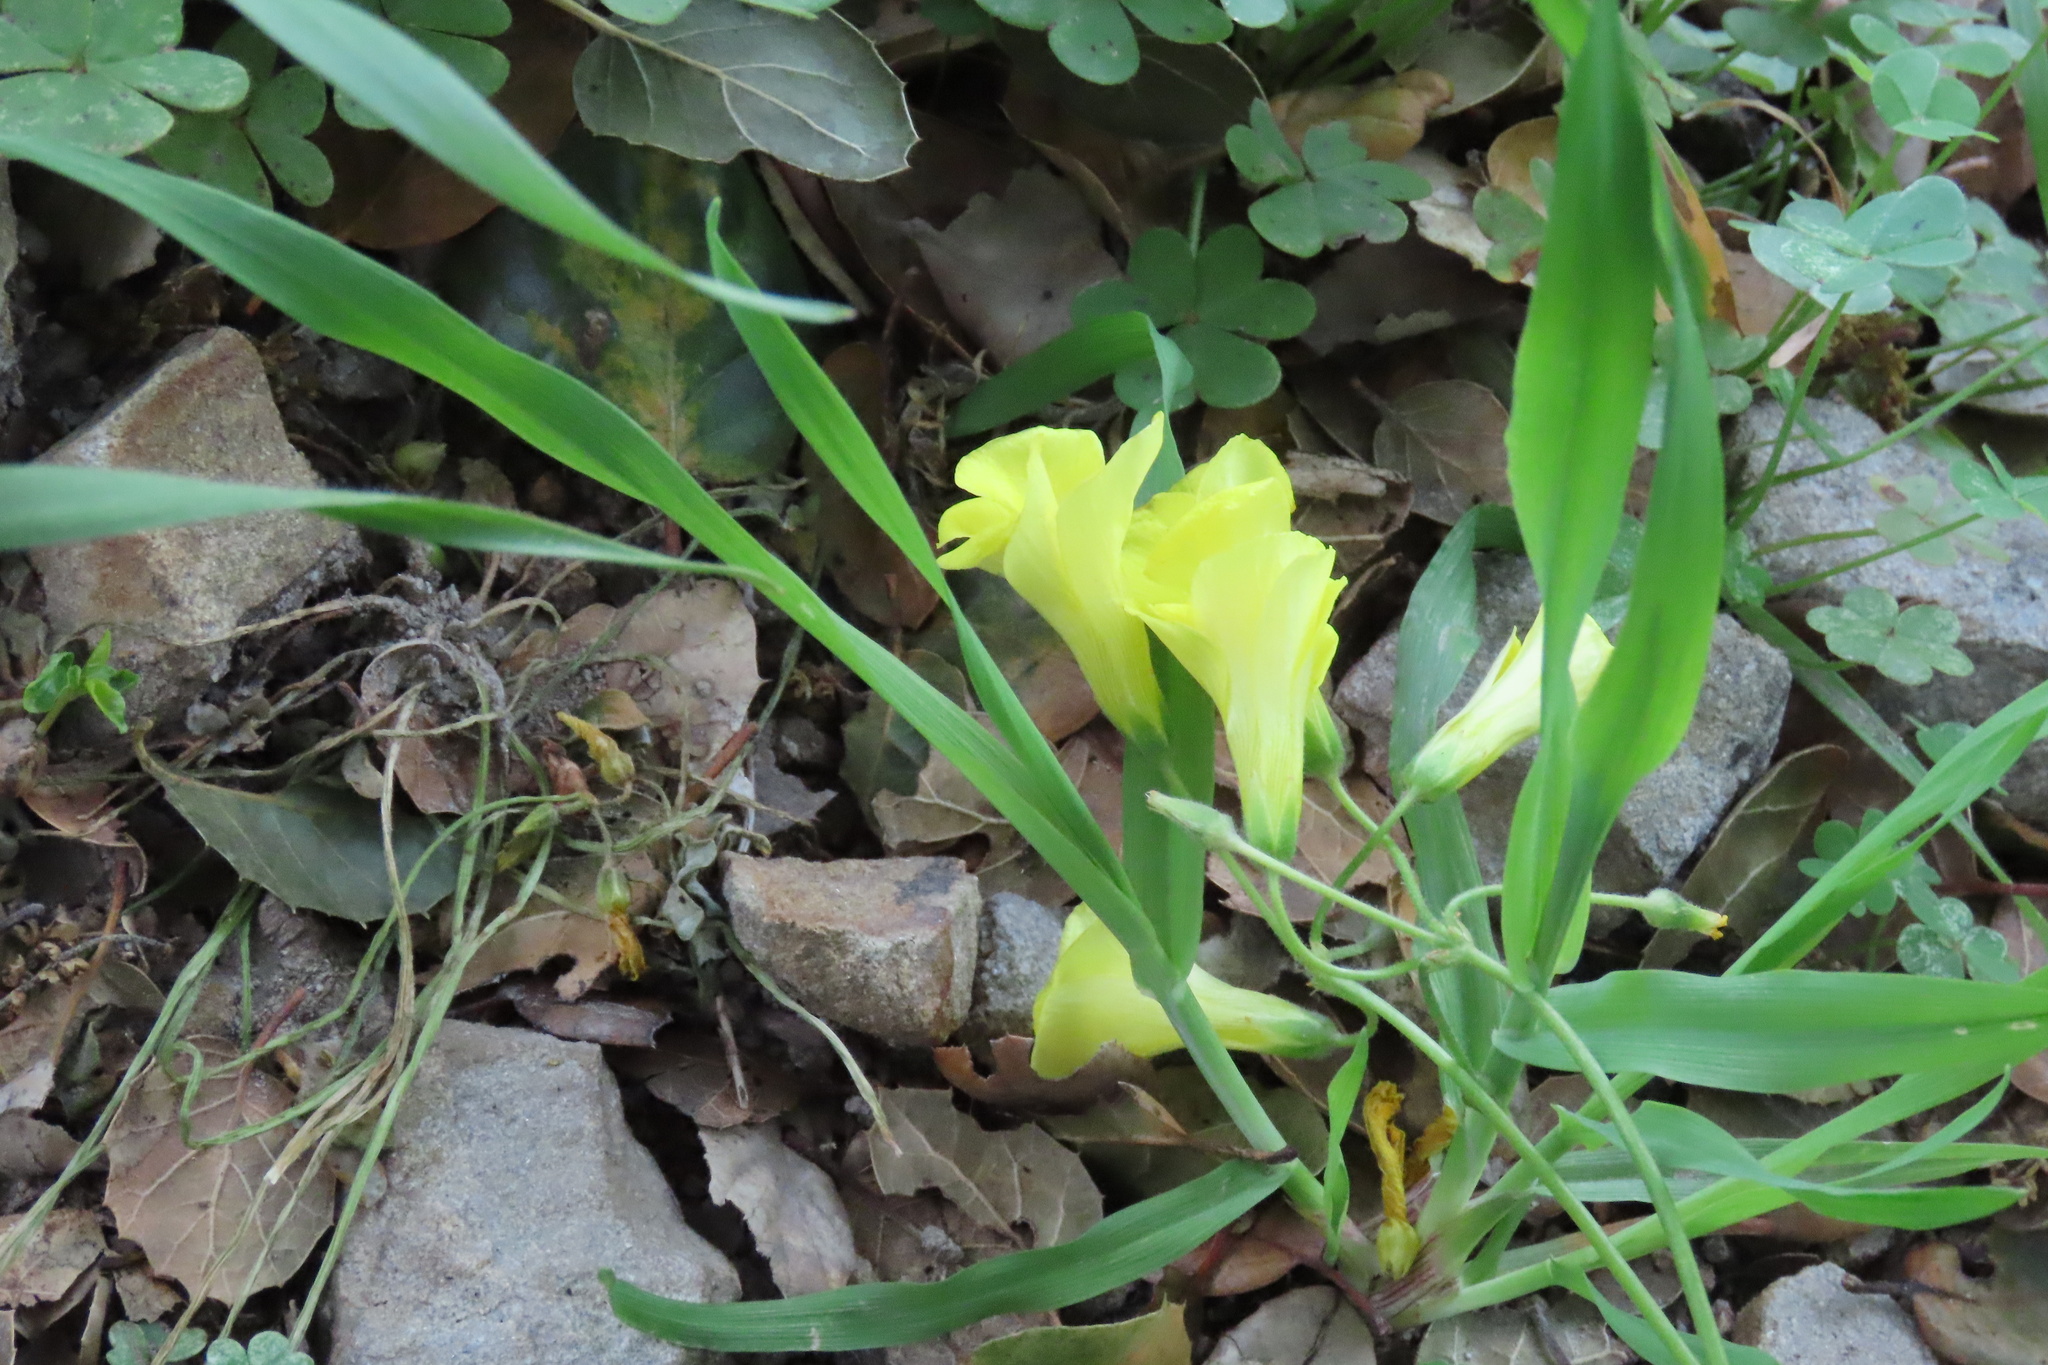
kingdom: Plantae
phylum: Tracheophyta
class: Magnoliopsida
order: Oxalidales
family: Oxalidaceae
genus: Oxalis
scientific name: Oxalis pes-caprae
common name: Bermuda-buttercup
